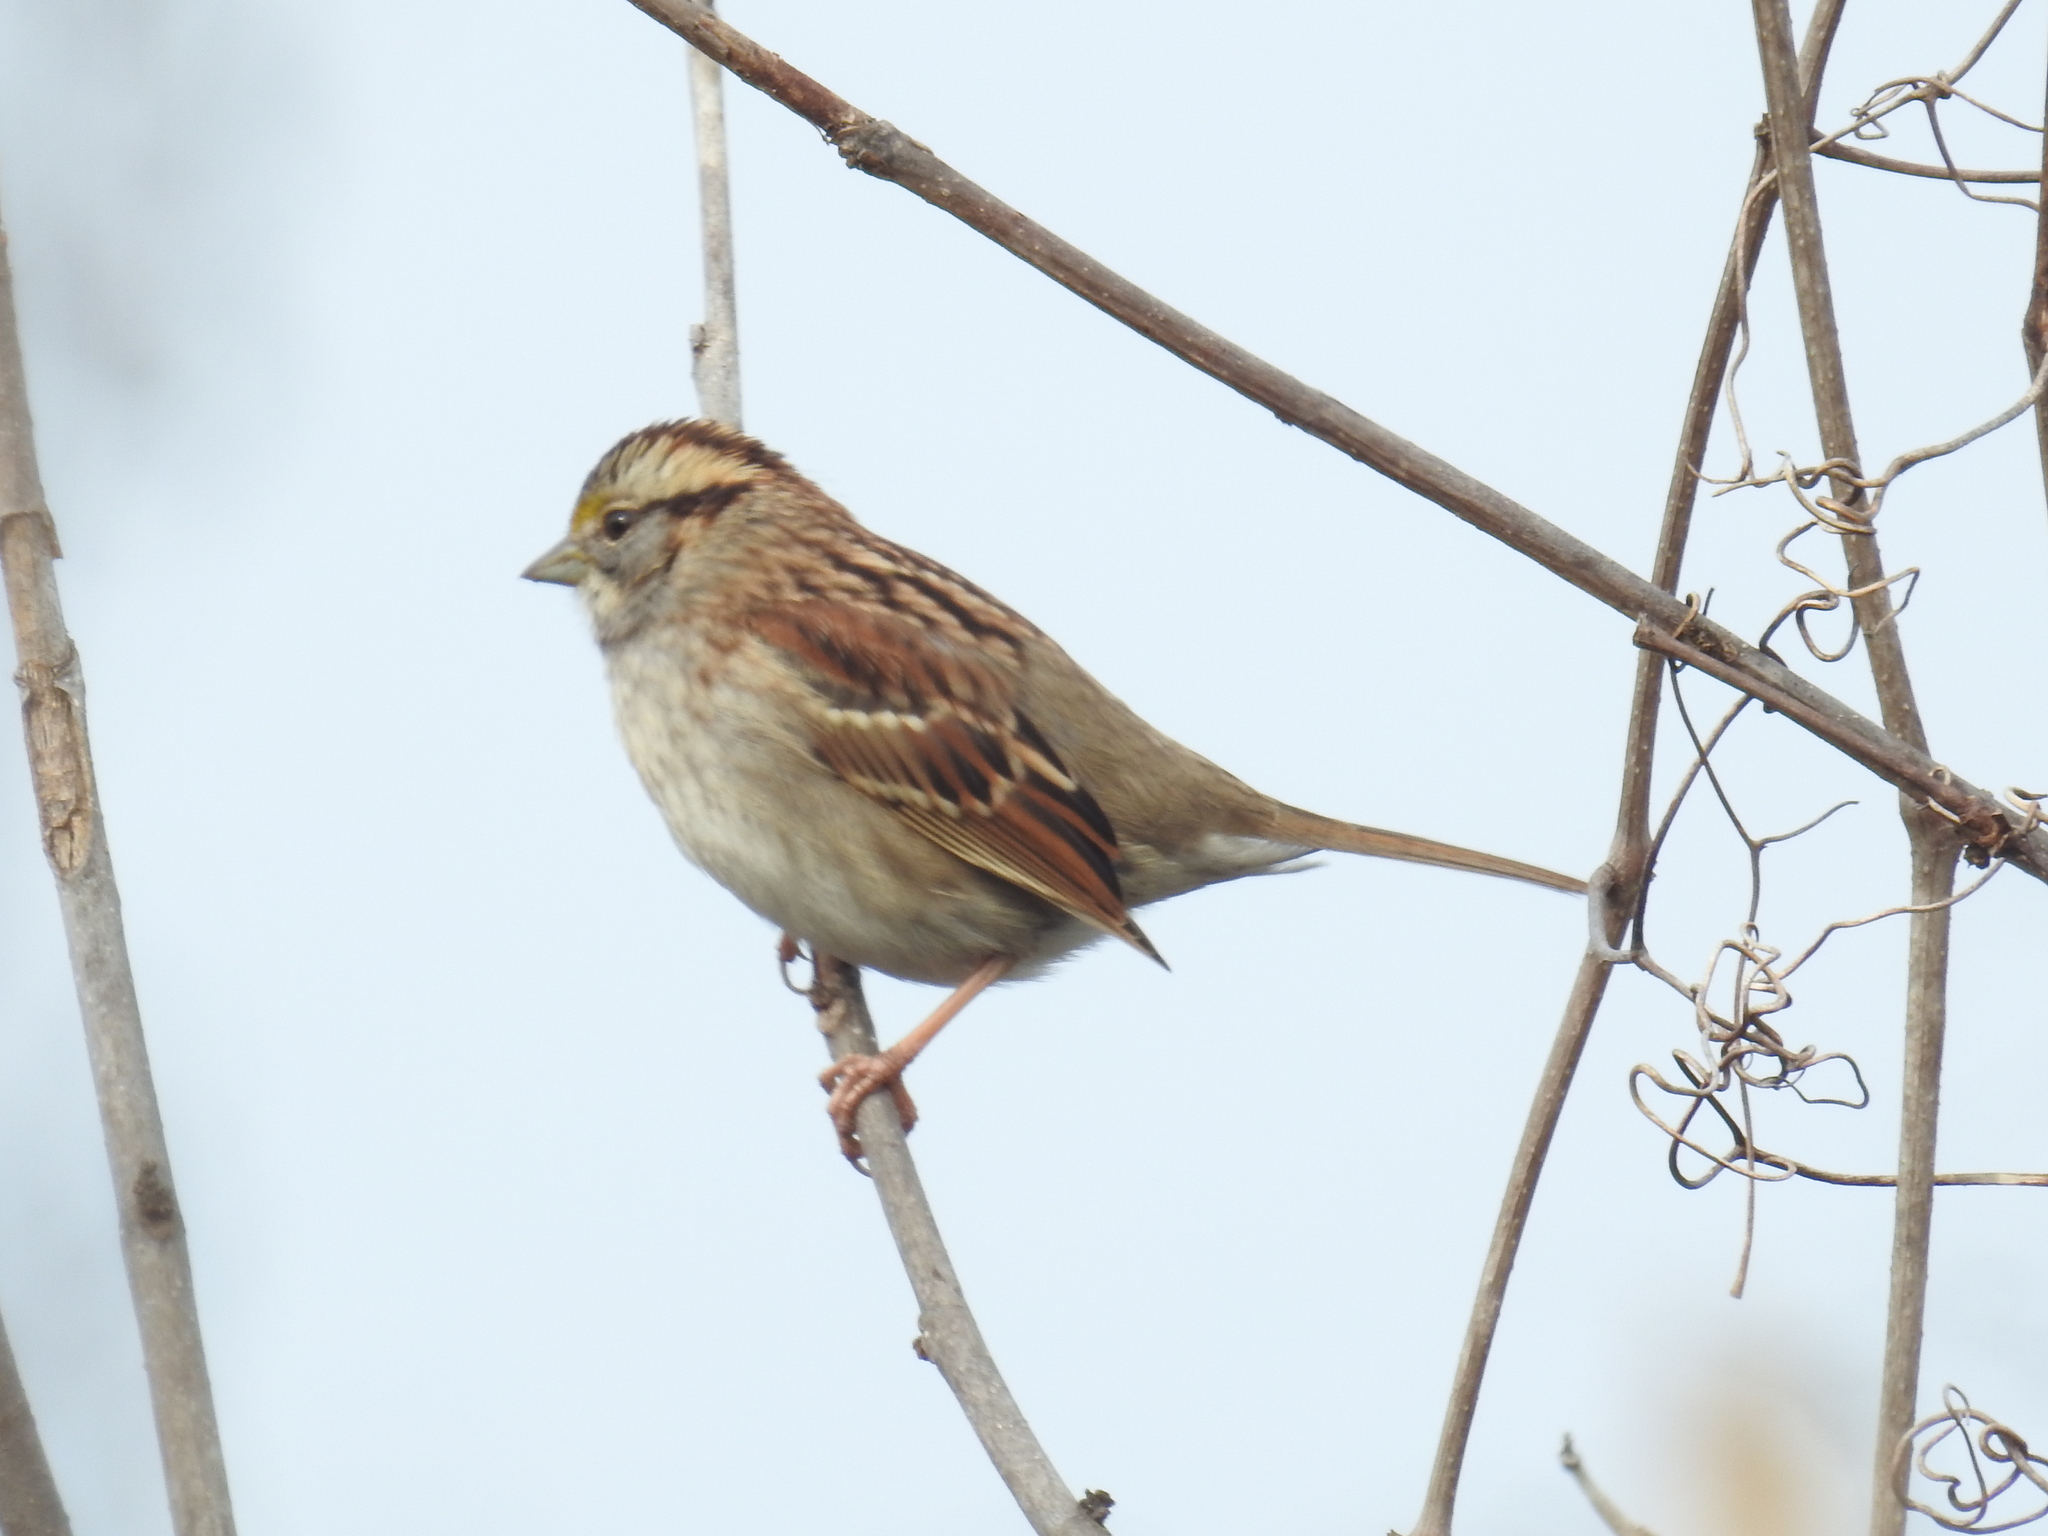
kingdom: Animalia
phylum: Chordata
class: Aves
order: Passeriformes
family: Passerellidae
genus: Zonotrichia
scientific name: Zonotrichia albicollis
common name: White-throated sparrow
